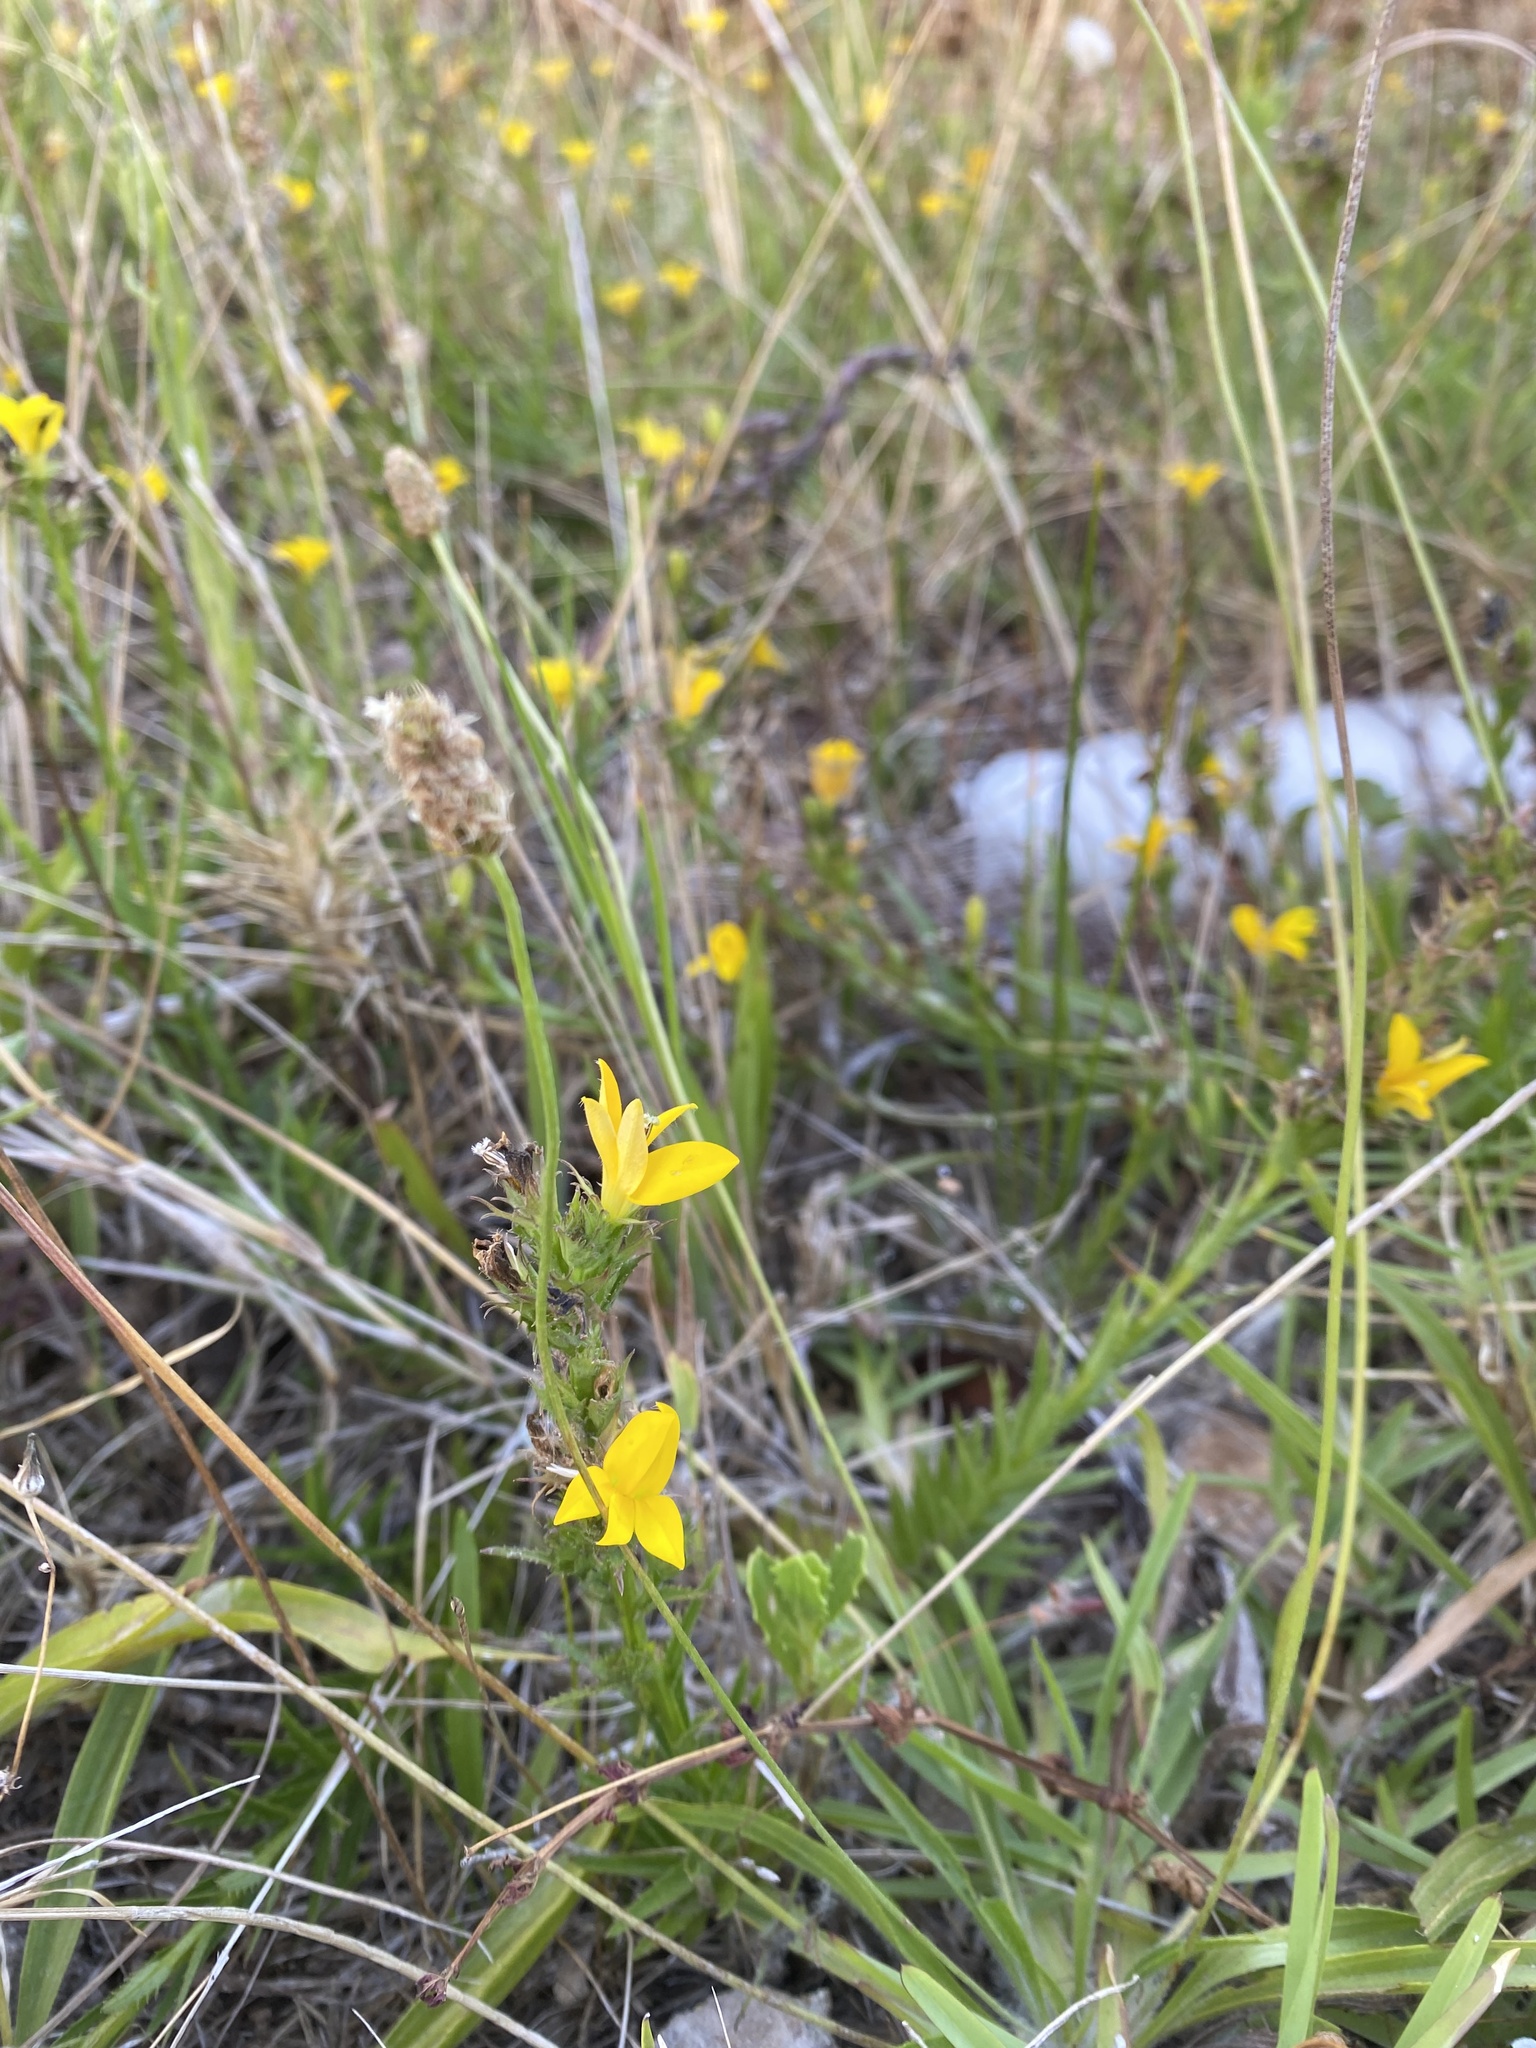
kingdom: Plantae
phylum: Tracheophyta
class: Magnoliopsida
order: Asterales
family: Campanulaceae
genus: Monopsis
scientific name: Monopsis lutea
